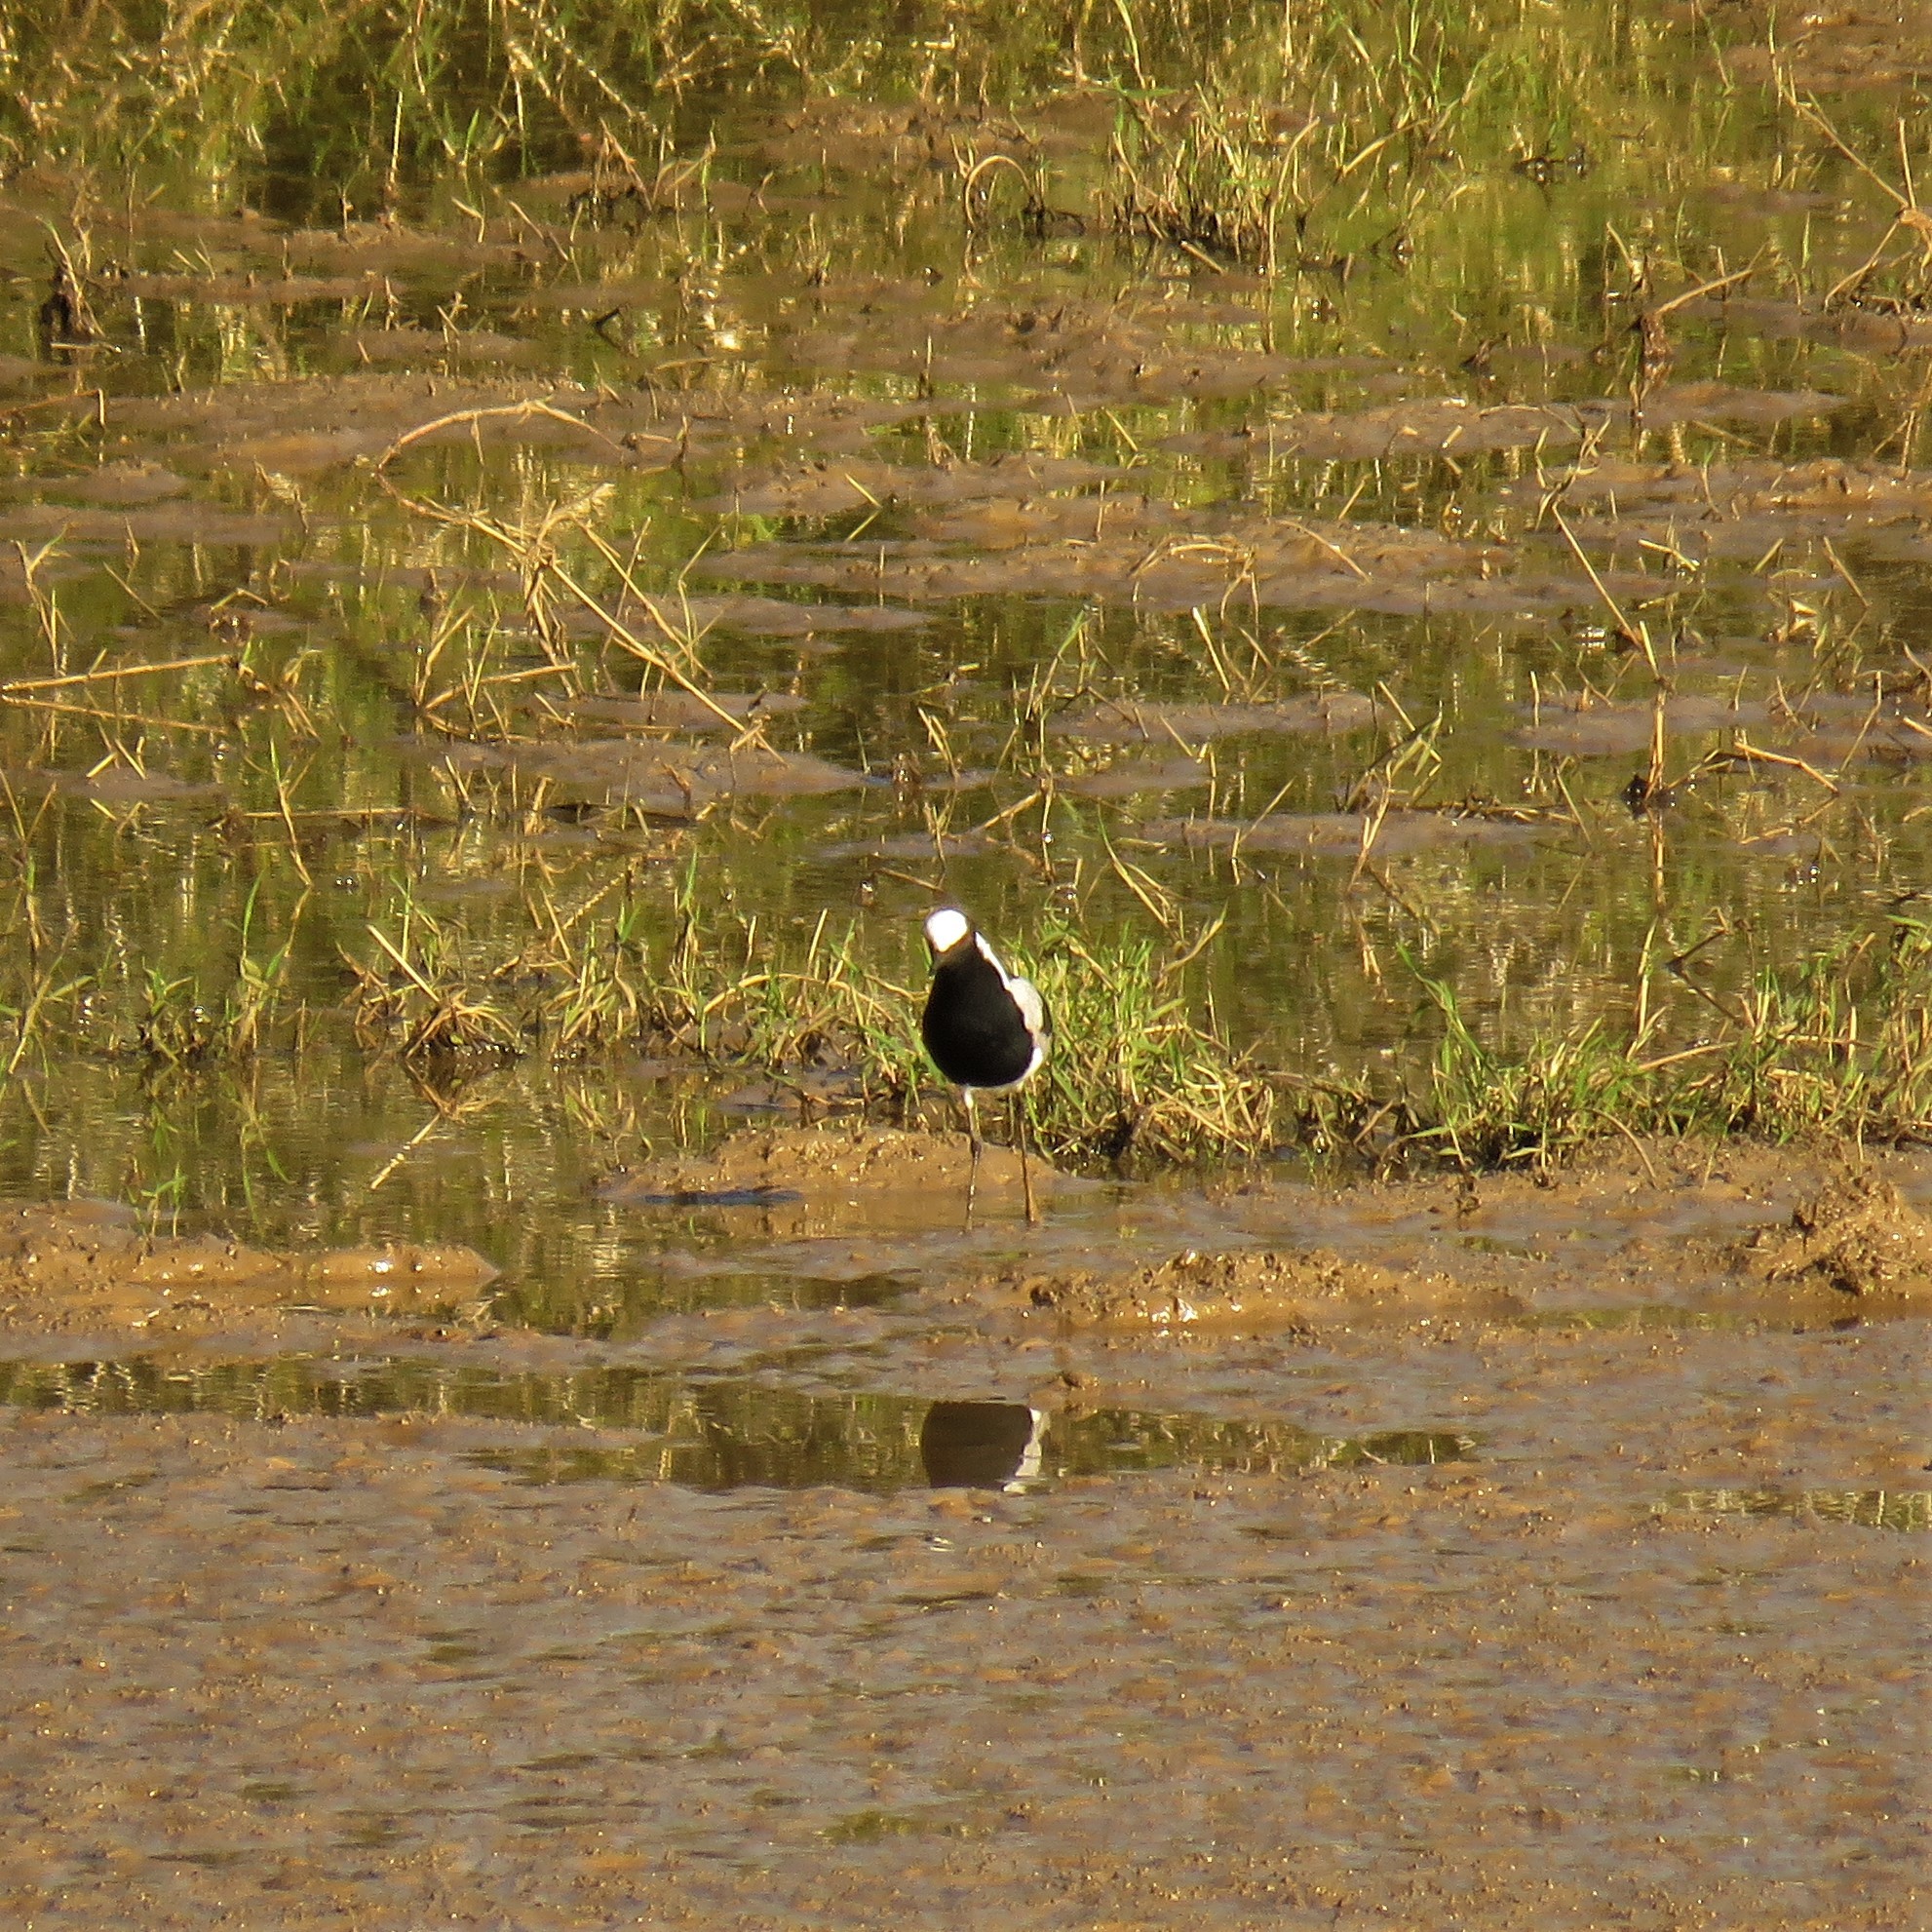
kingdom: Animalia
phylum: Chordata
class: Aves
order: Charadriiformes
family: Charadriidae
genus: Vanellus
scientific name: Vanellus armatus
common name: Blacksmith lapwing
